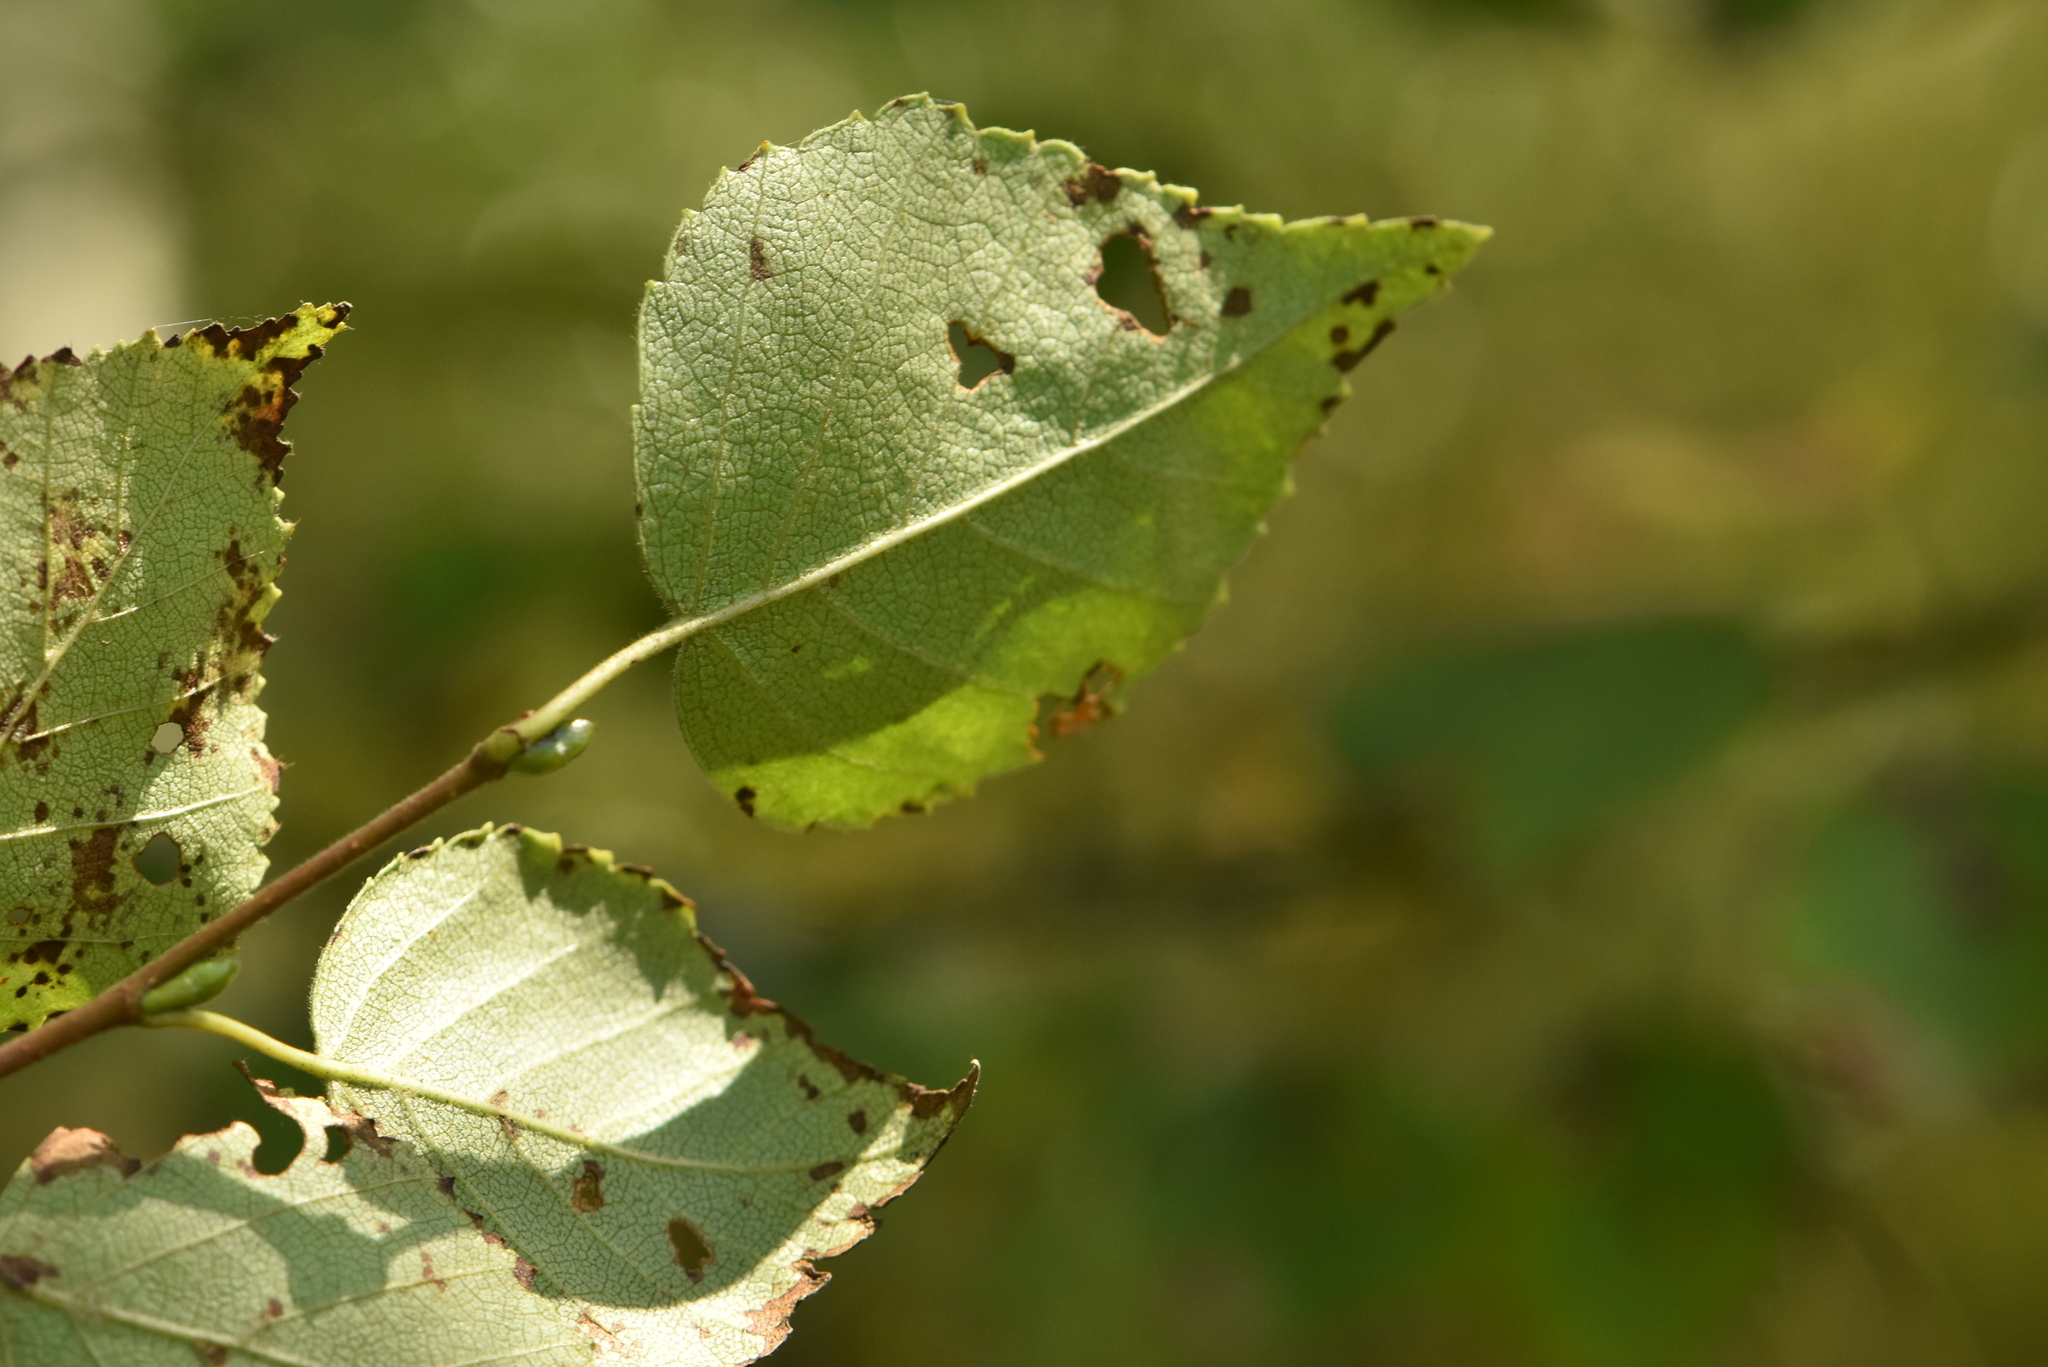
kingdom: Plantae
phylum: Tracheophyta
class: Magnoliopsida
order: Fagales
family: Betulaceae
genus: Betula
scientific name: Betula pubescens
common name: Downy birch
